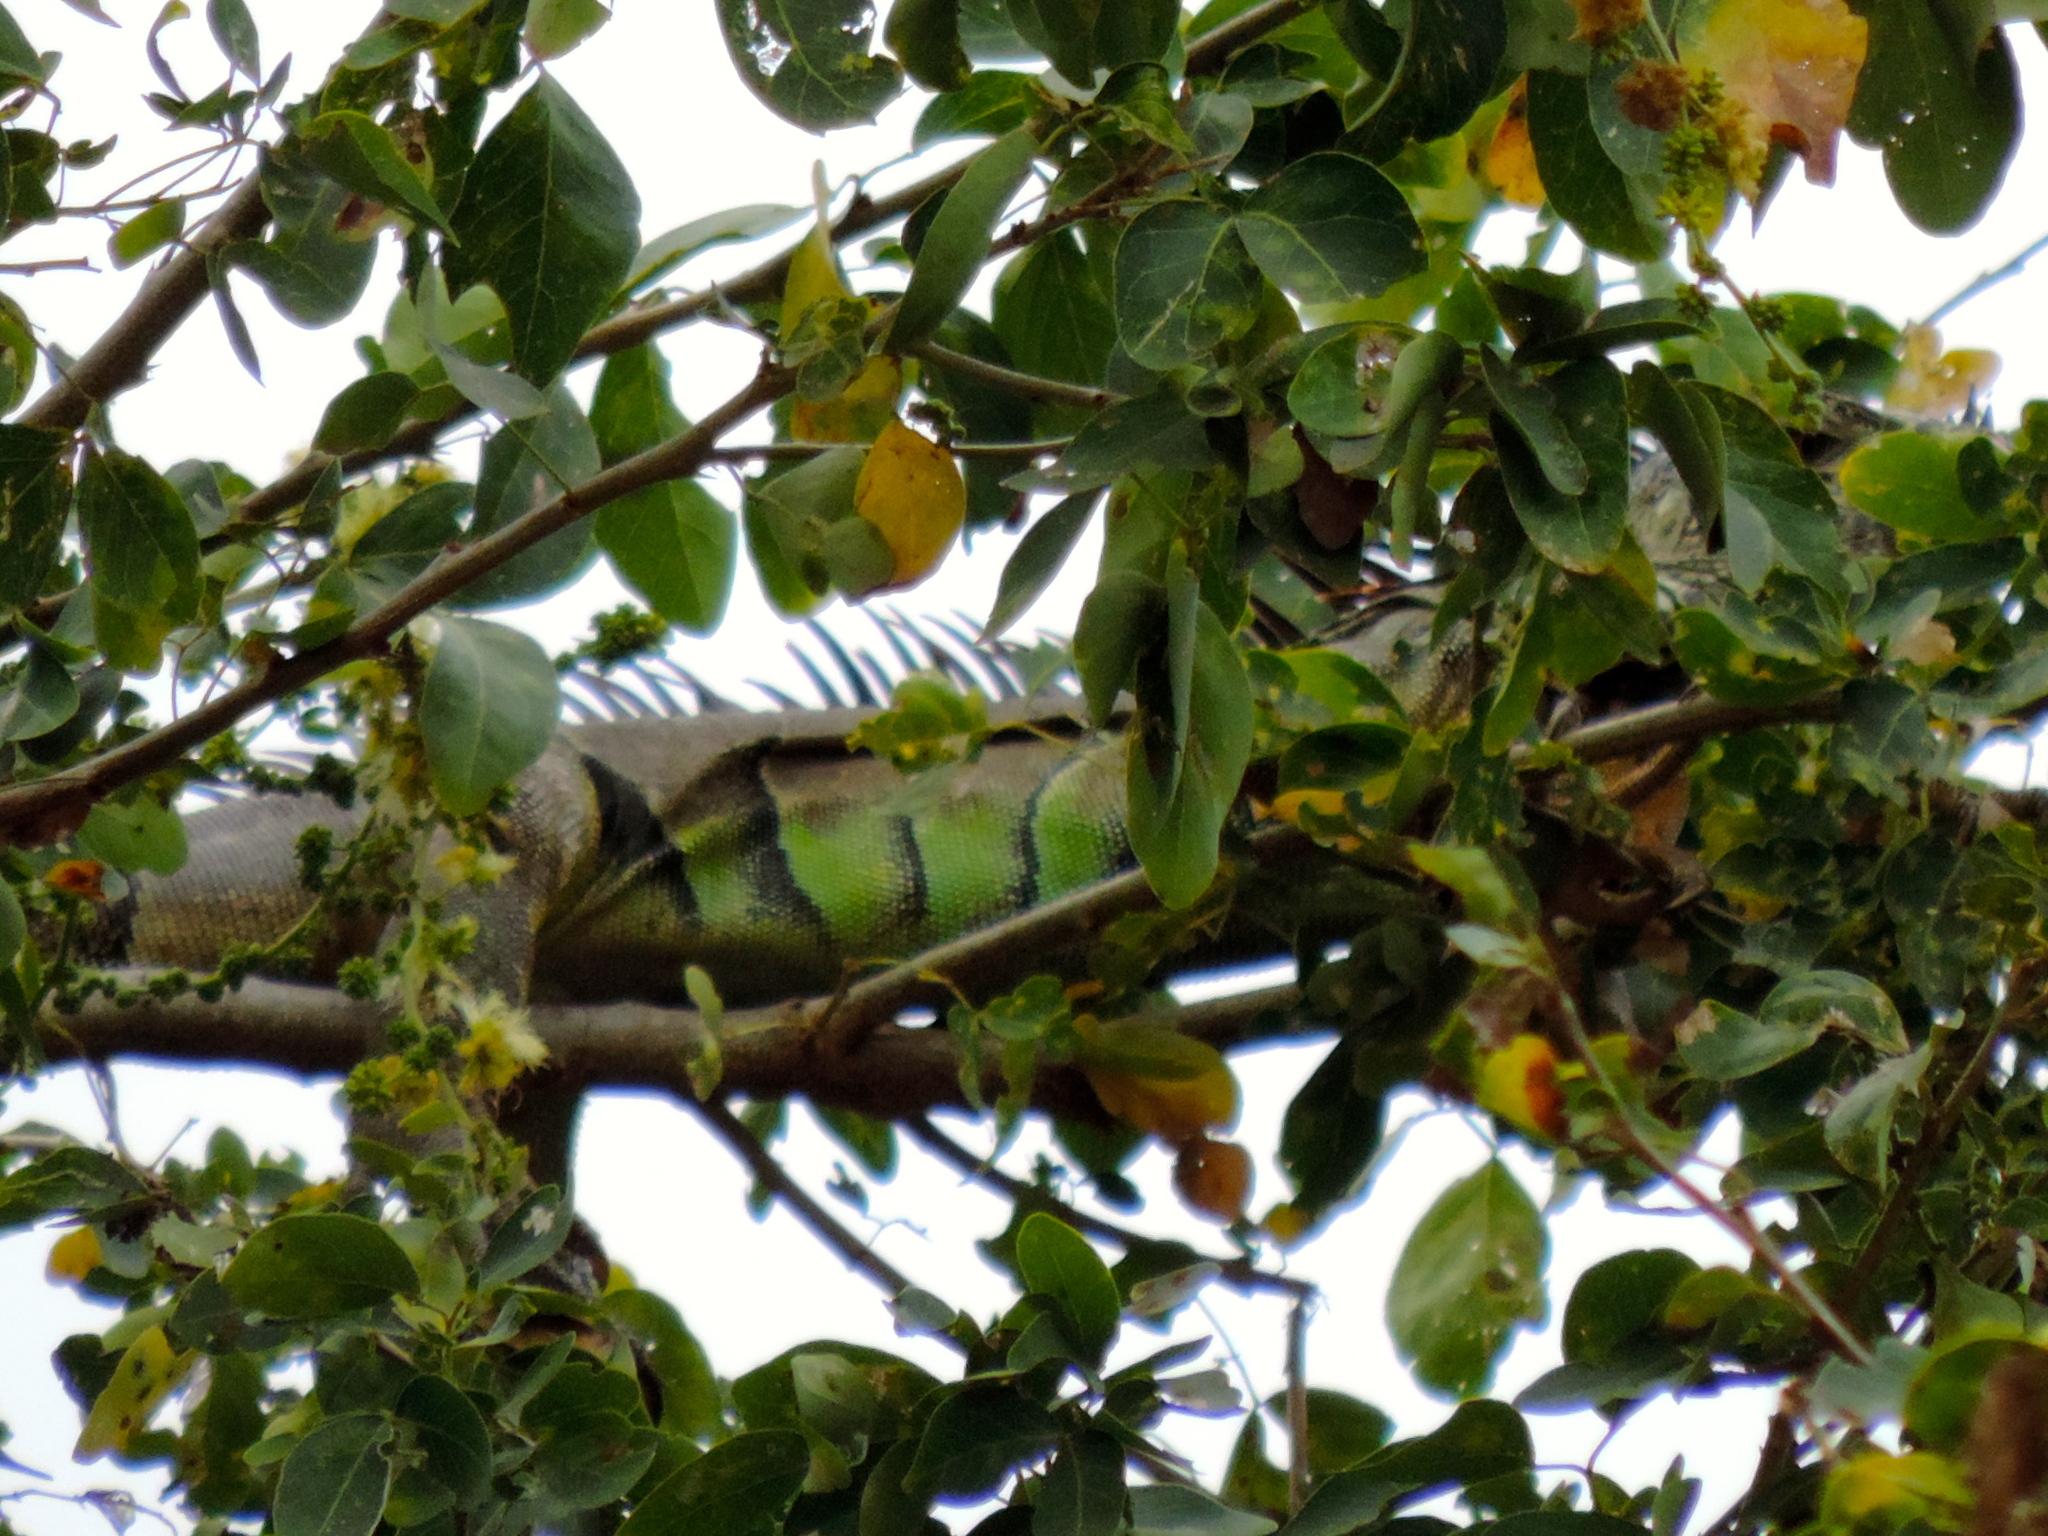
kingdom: Animalia
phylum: Chordata
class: Squamata
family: Iguanidae
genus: Iguana
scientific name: Iguana iguana
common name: Green iguana
